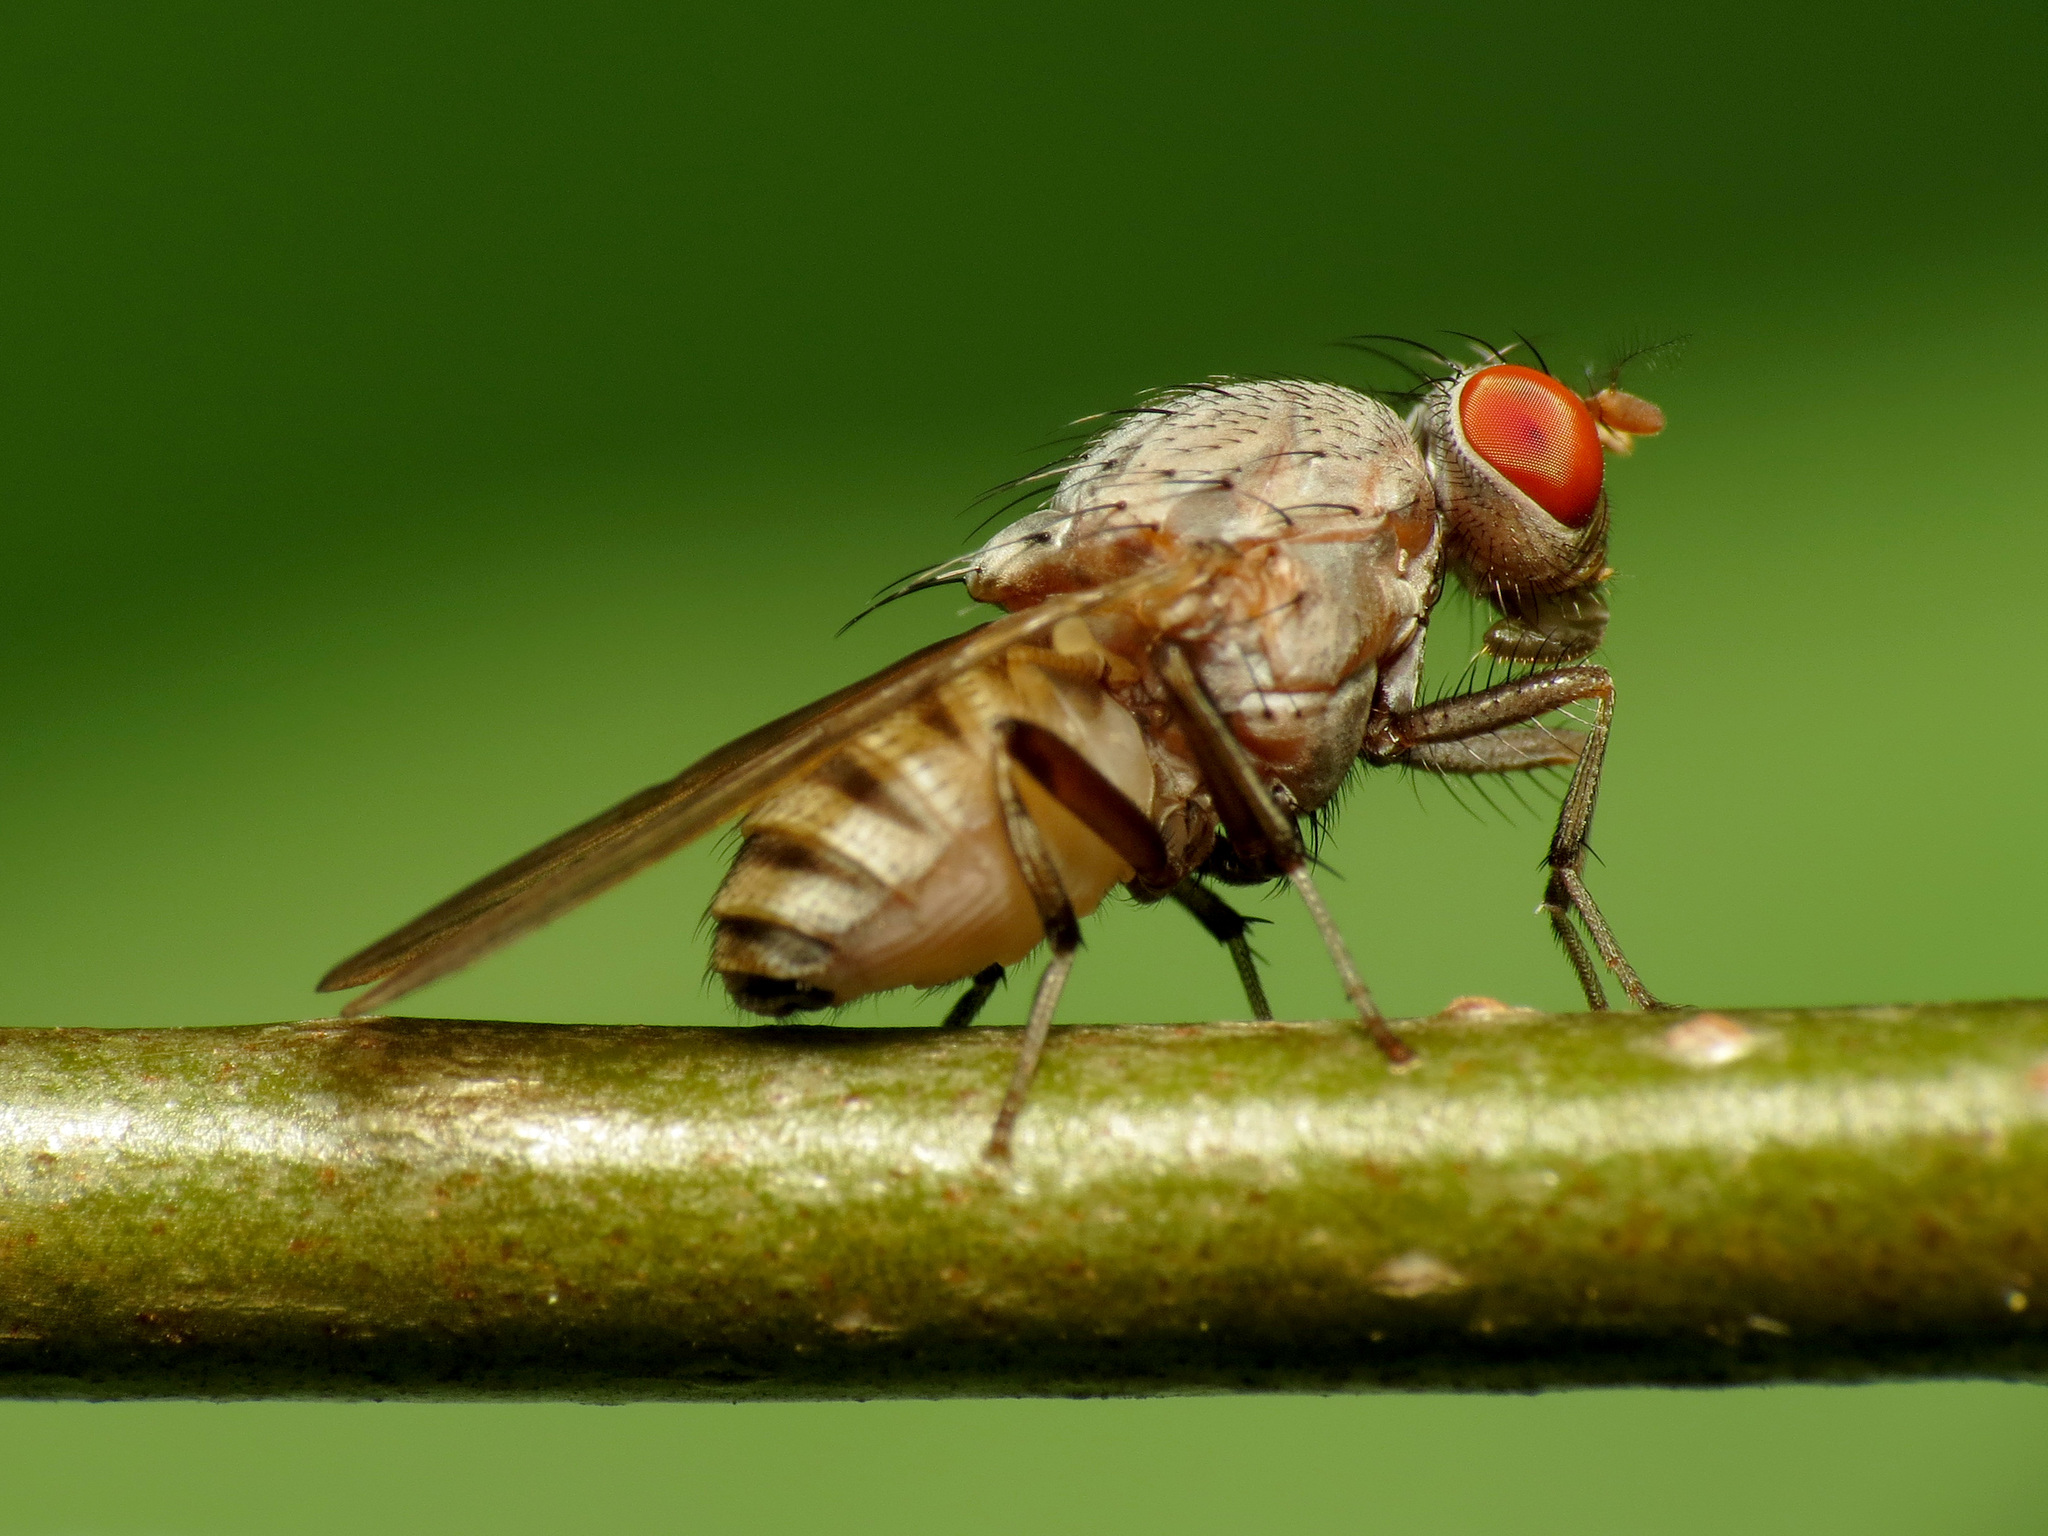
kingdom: Animalia
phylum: Arthropoda
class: Insecta
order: Diptera
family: Lauxaniidae
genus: Minettia
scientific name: Minettia magna
